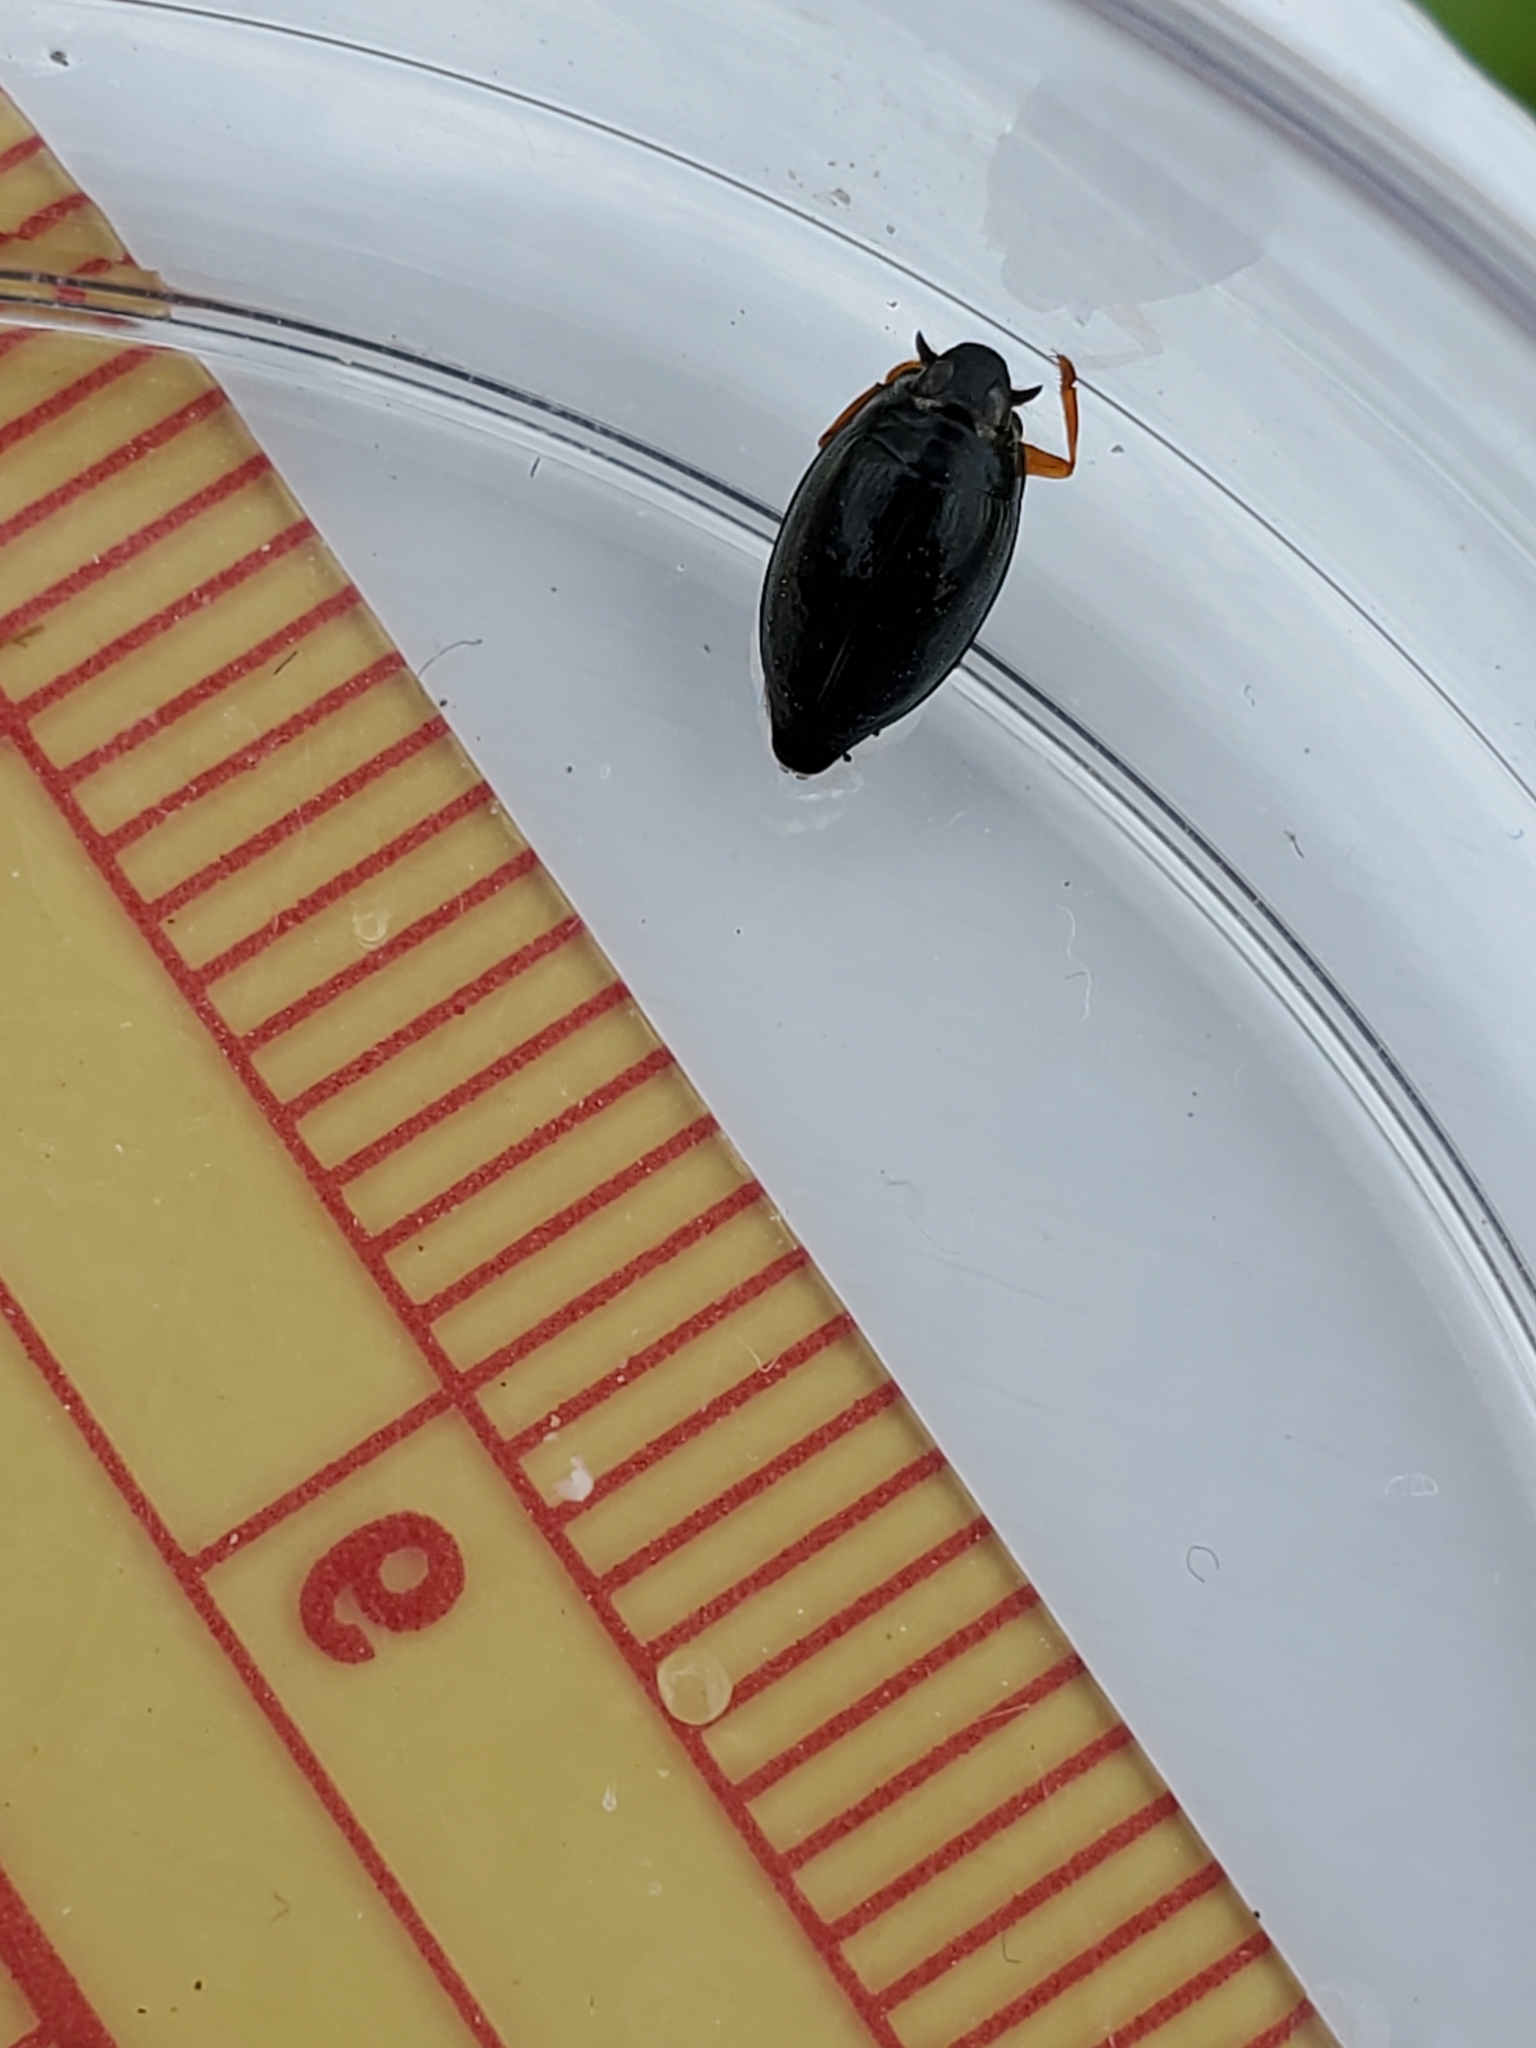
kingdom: Animalia
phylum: Arthropoda
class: Insecta
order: Coleoptera
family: Gyrinidae
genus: Gyrinus
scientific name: Gyrinus
